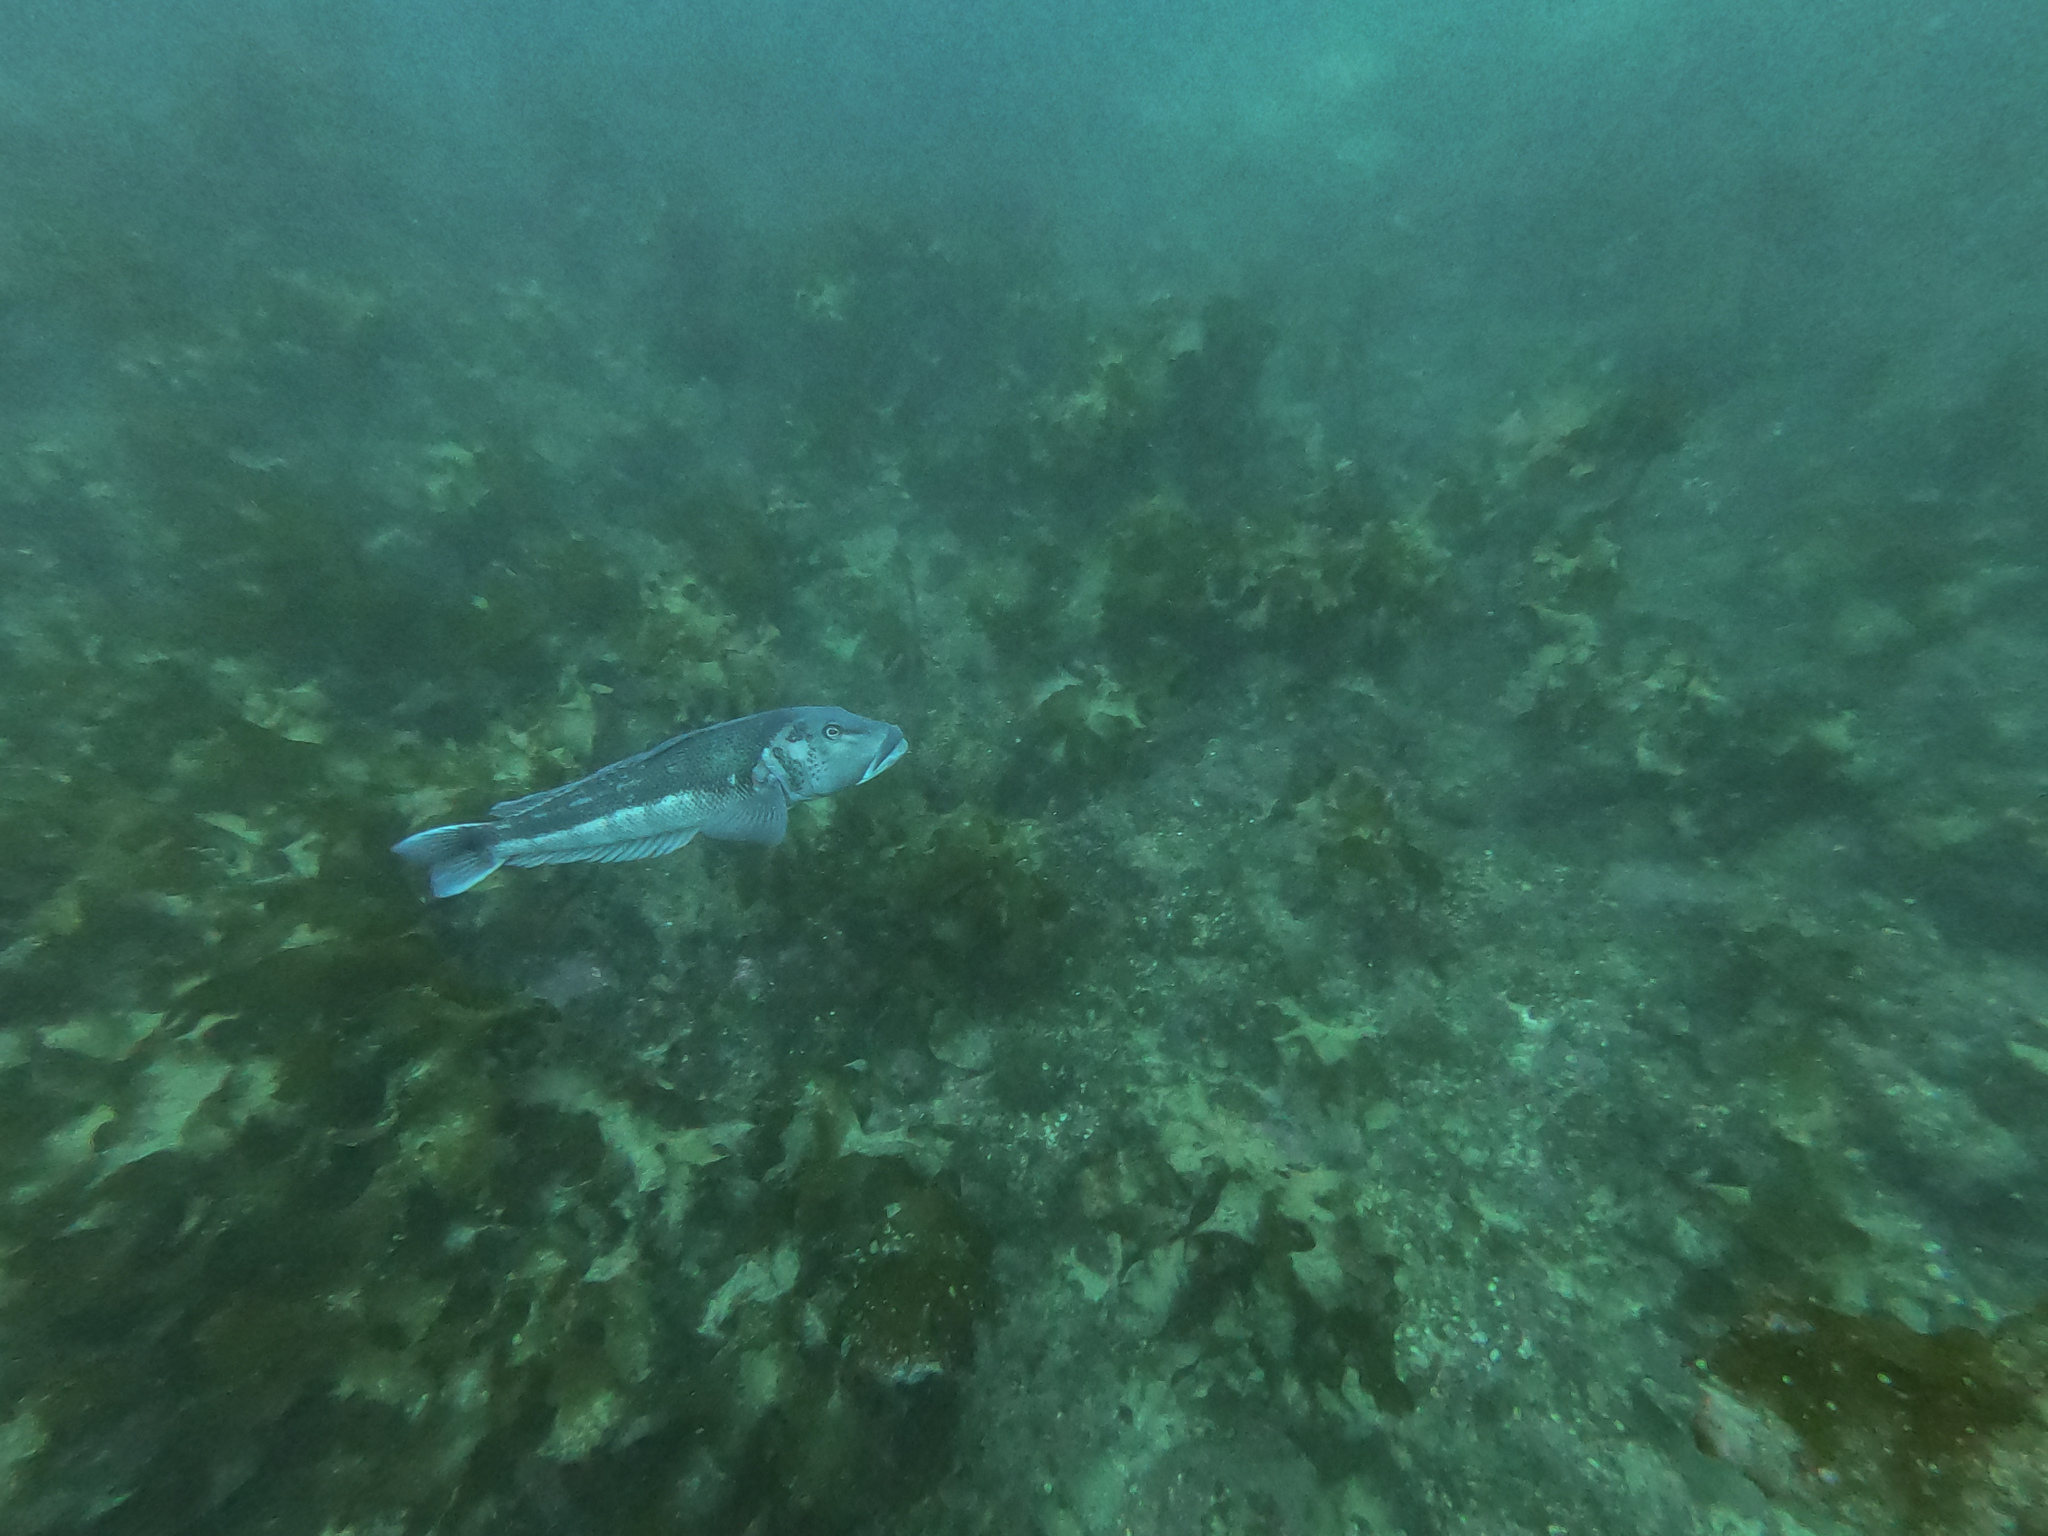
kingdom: Animalia
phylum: Chordata
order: Perciformes
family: Pinguipedidae
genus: Parapercis
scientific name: Parapercis colias
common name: Blue cod
